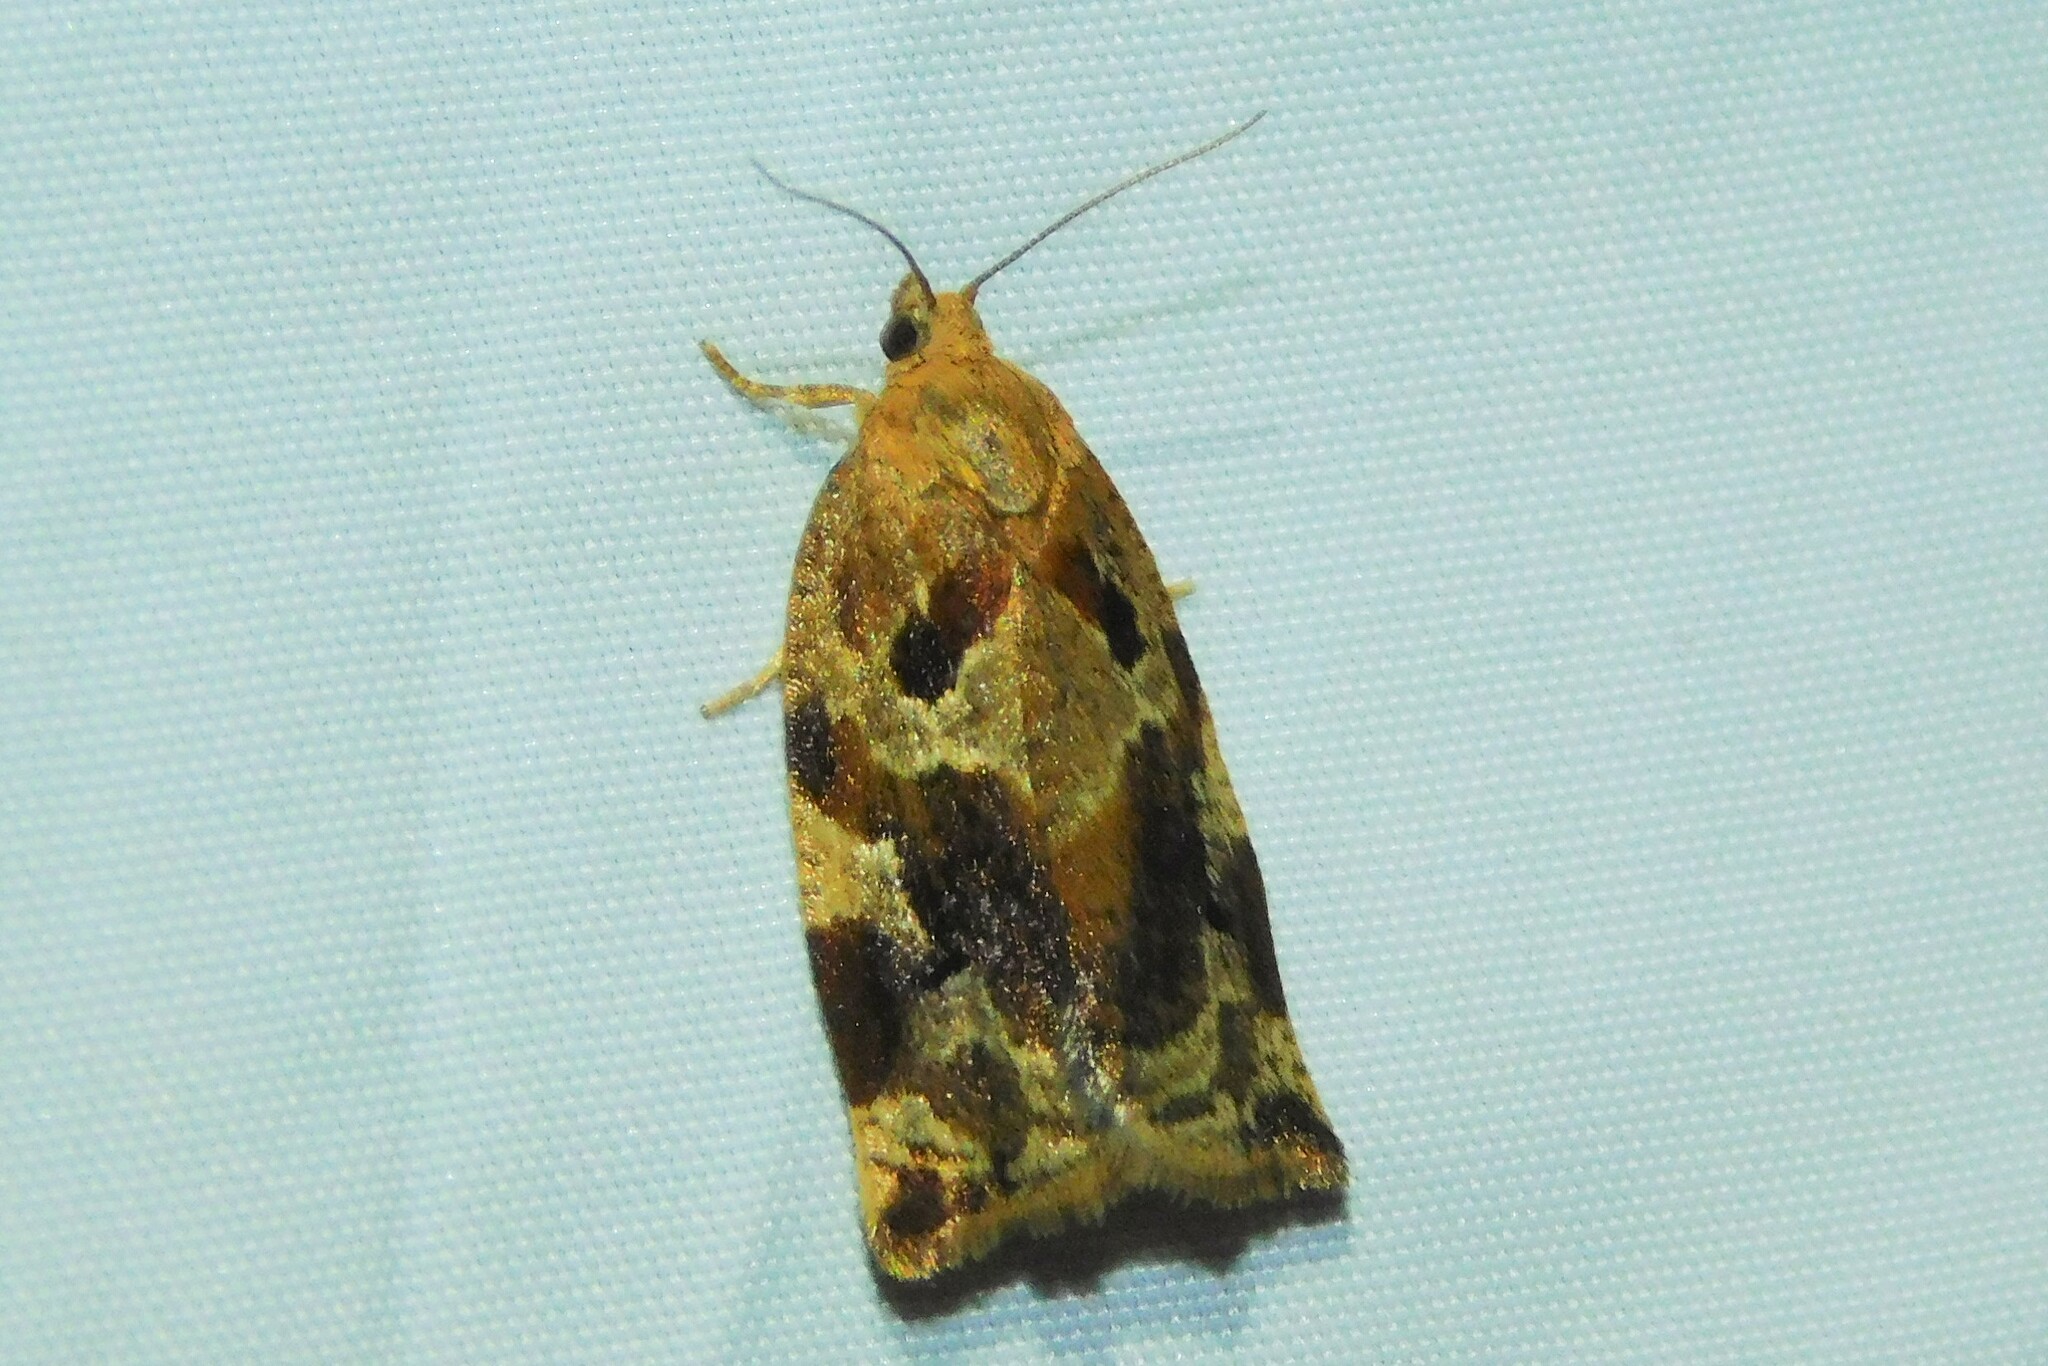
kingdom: Animalia
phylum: Arthropoda
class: Insecta
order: Lepidoptera
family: Tortricidae
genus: Archips
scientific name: Archips xylosteana
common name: Variegated golden tortrix
